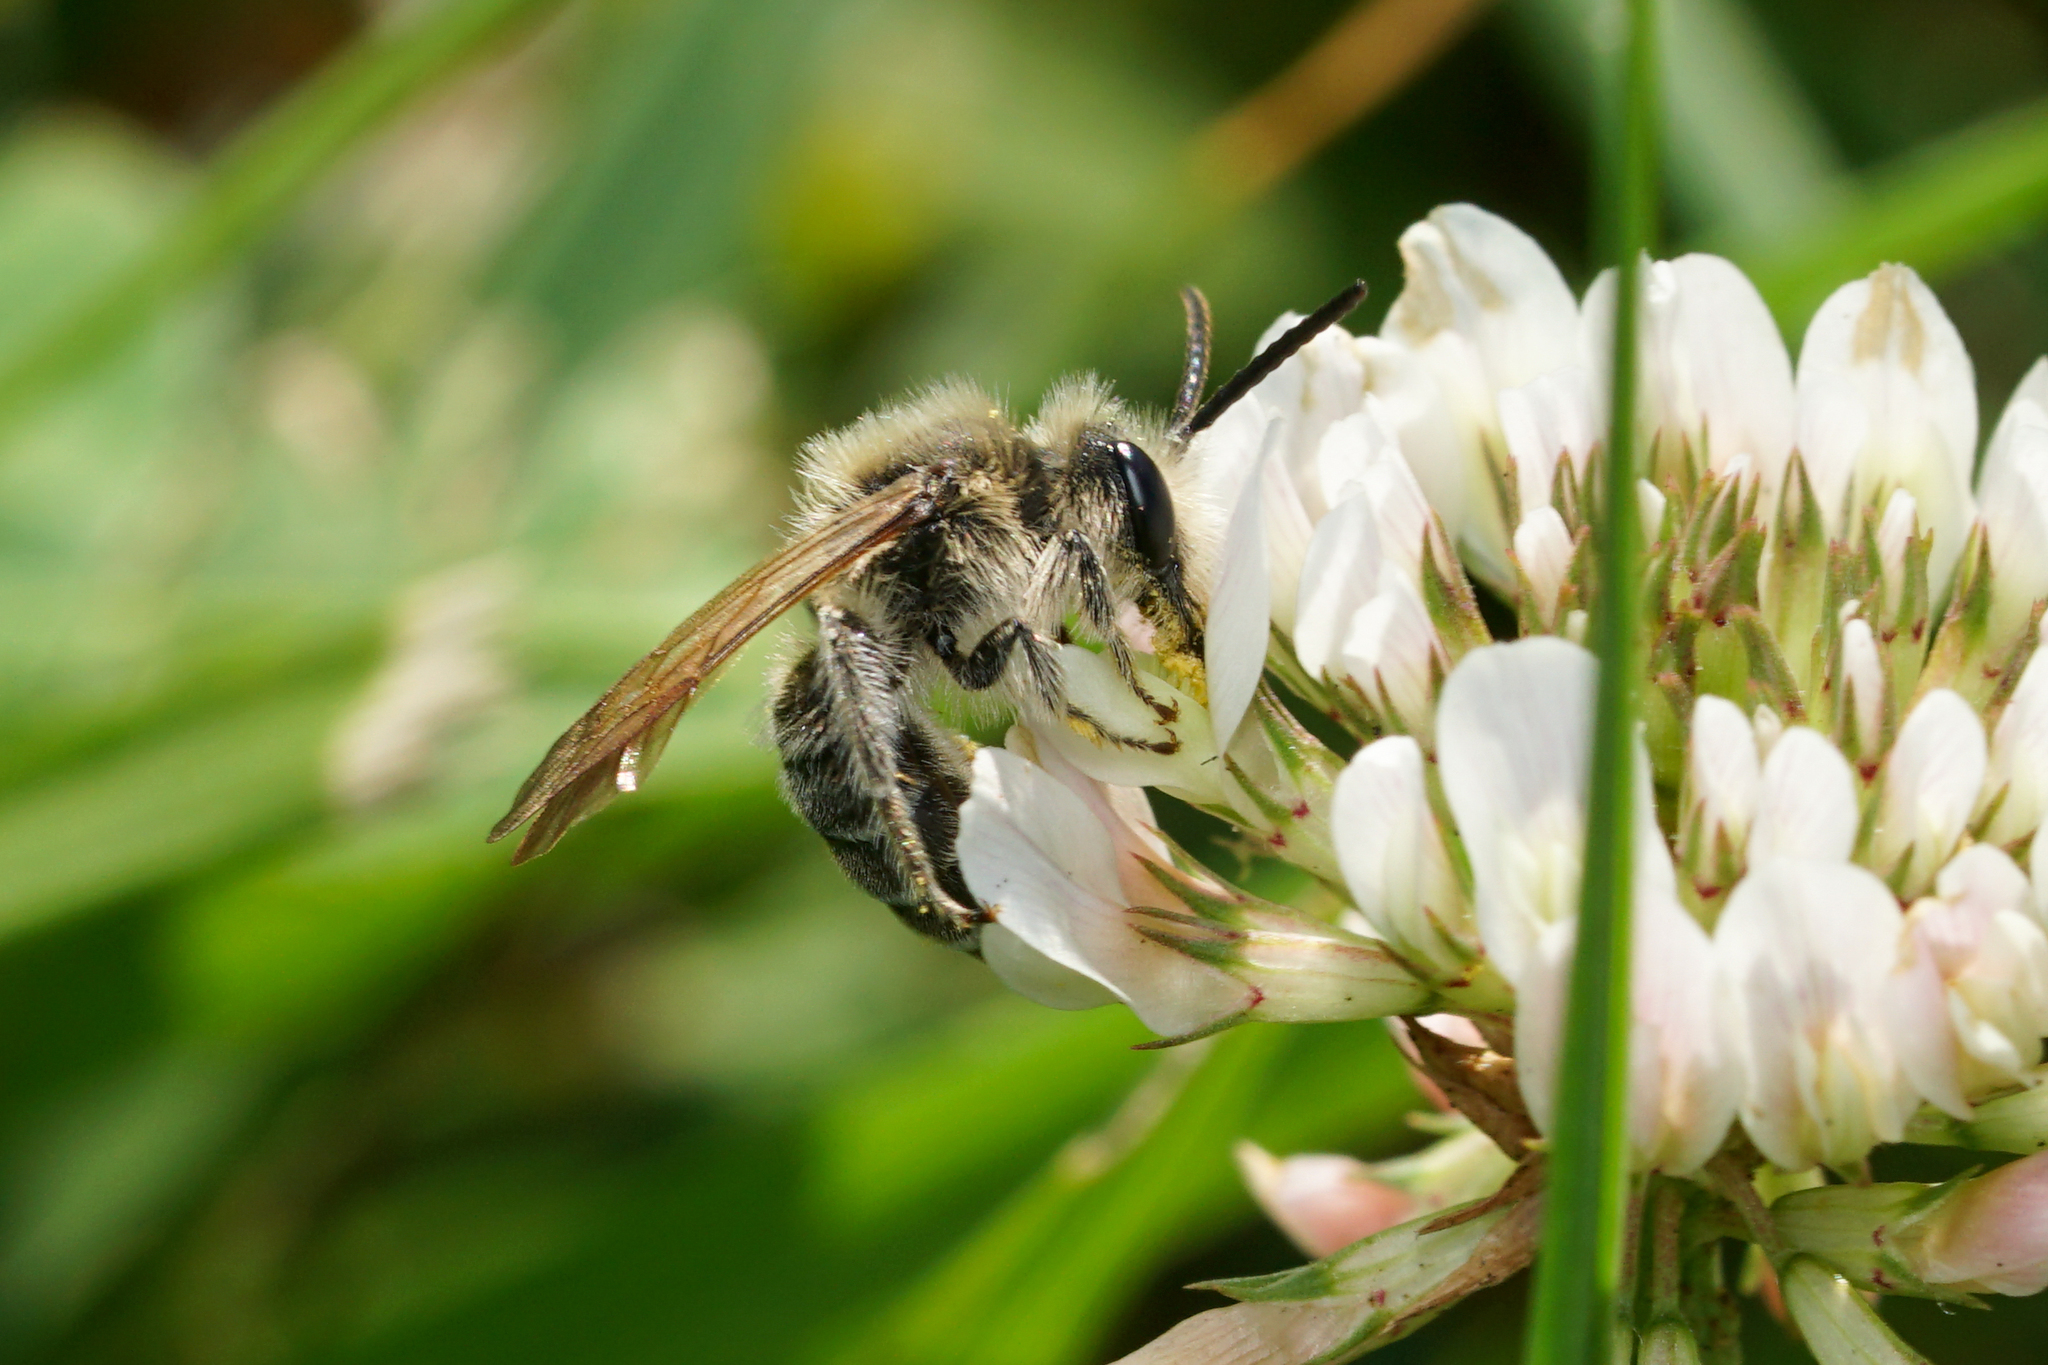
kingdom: Animalia
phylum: Arthropoda
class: Insecta
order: Hymenoptera
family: Andrenidae
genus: Andrena
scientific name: Andrena wilkella
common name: Wilke's mining bee
